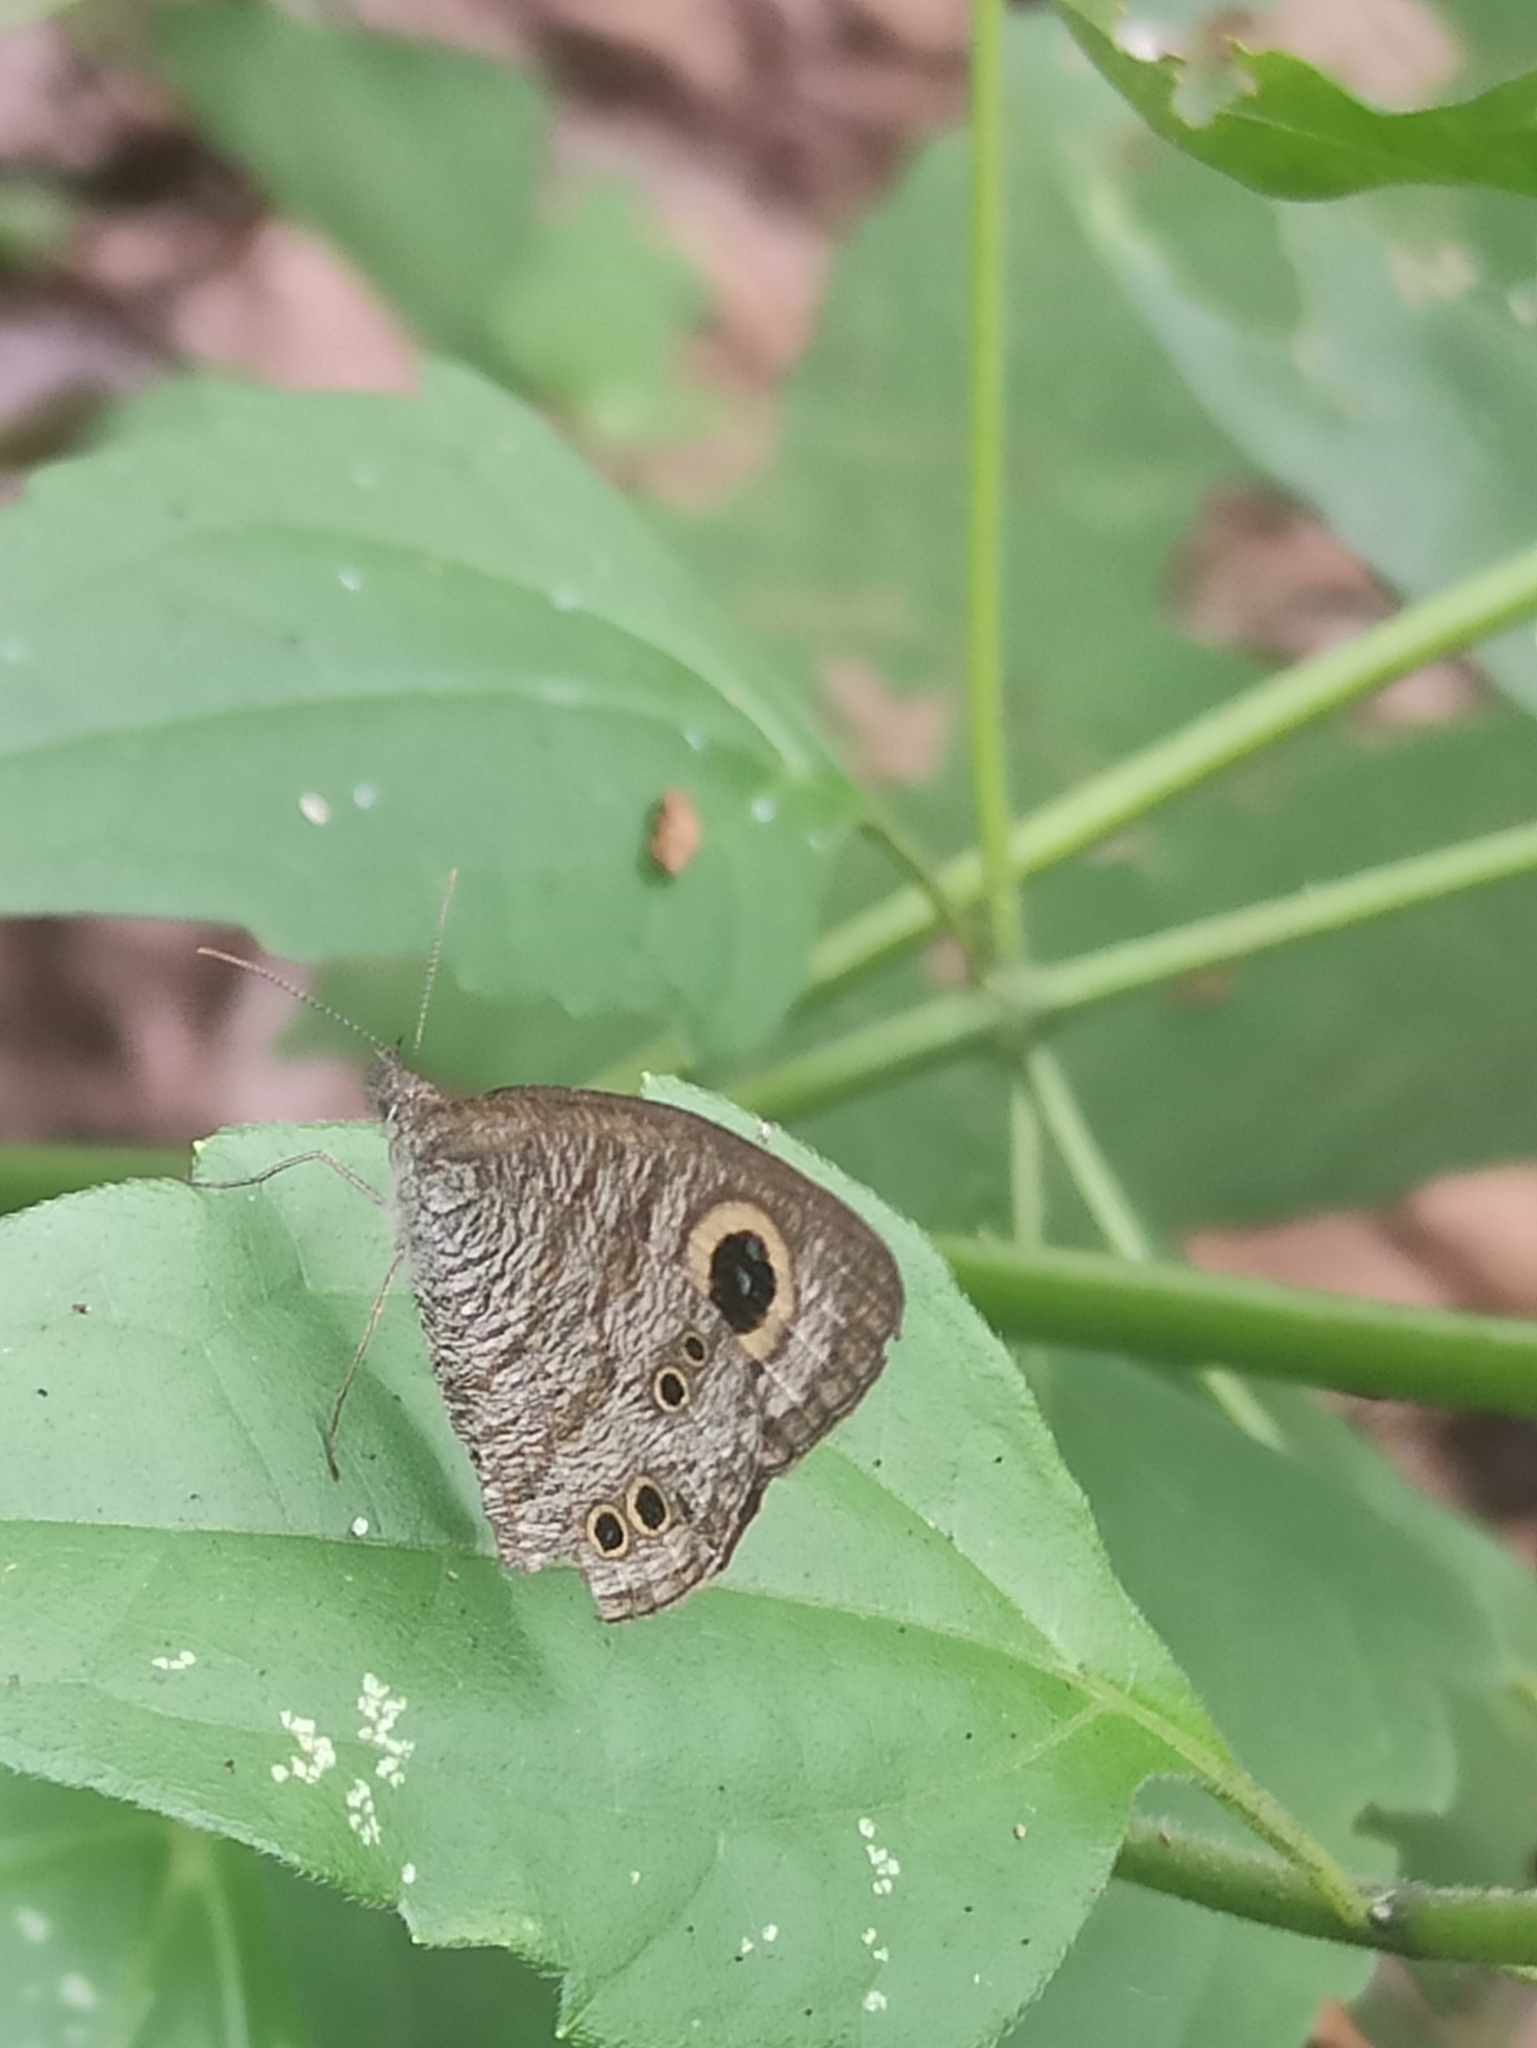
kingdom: Animalia
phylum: Arthropoda
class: Insecta
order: Lepidoptera
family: Nymphalidae
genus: Ypthima
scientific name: Ypthima baldus
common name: Common five-ring
